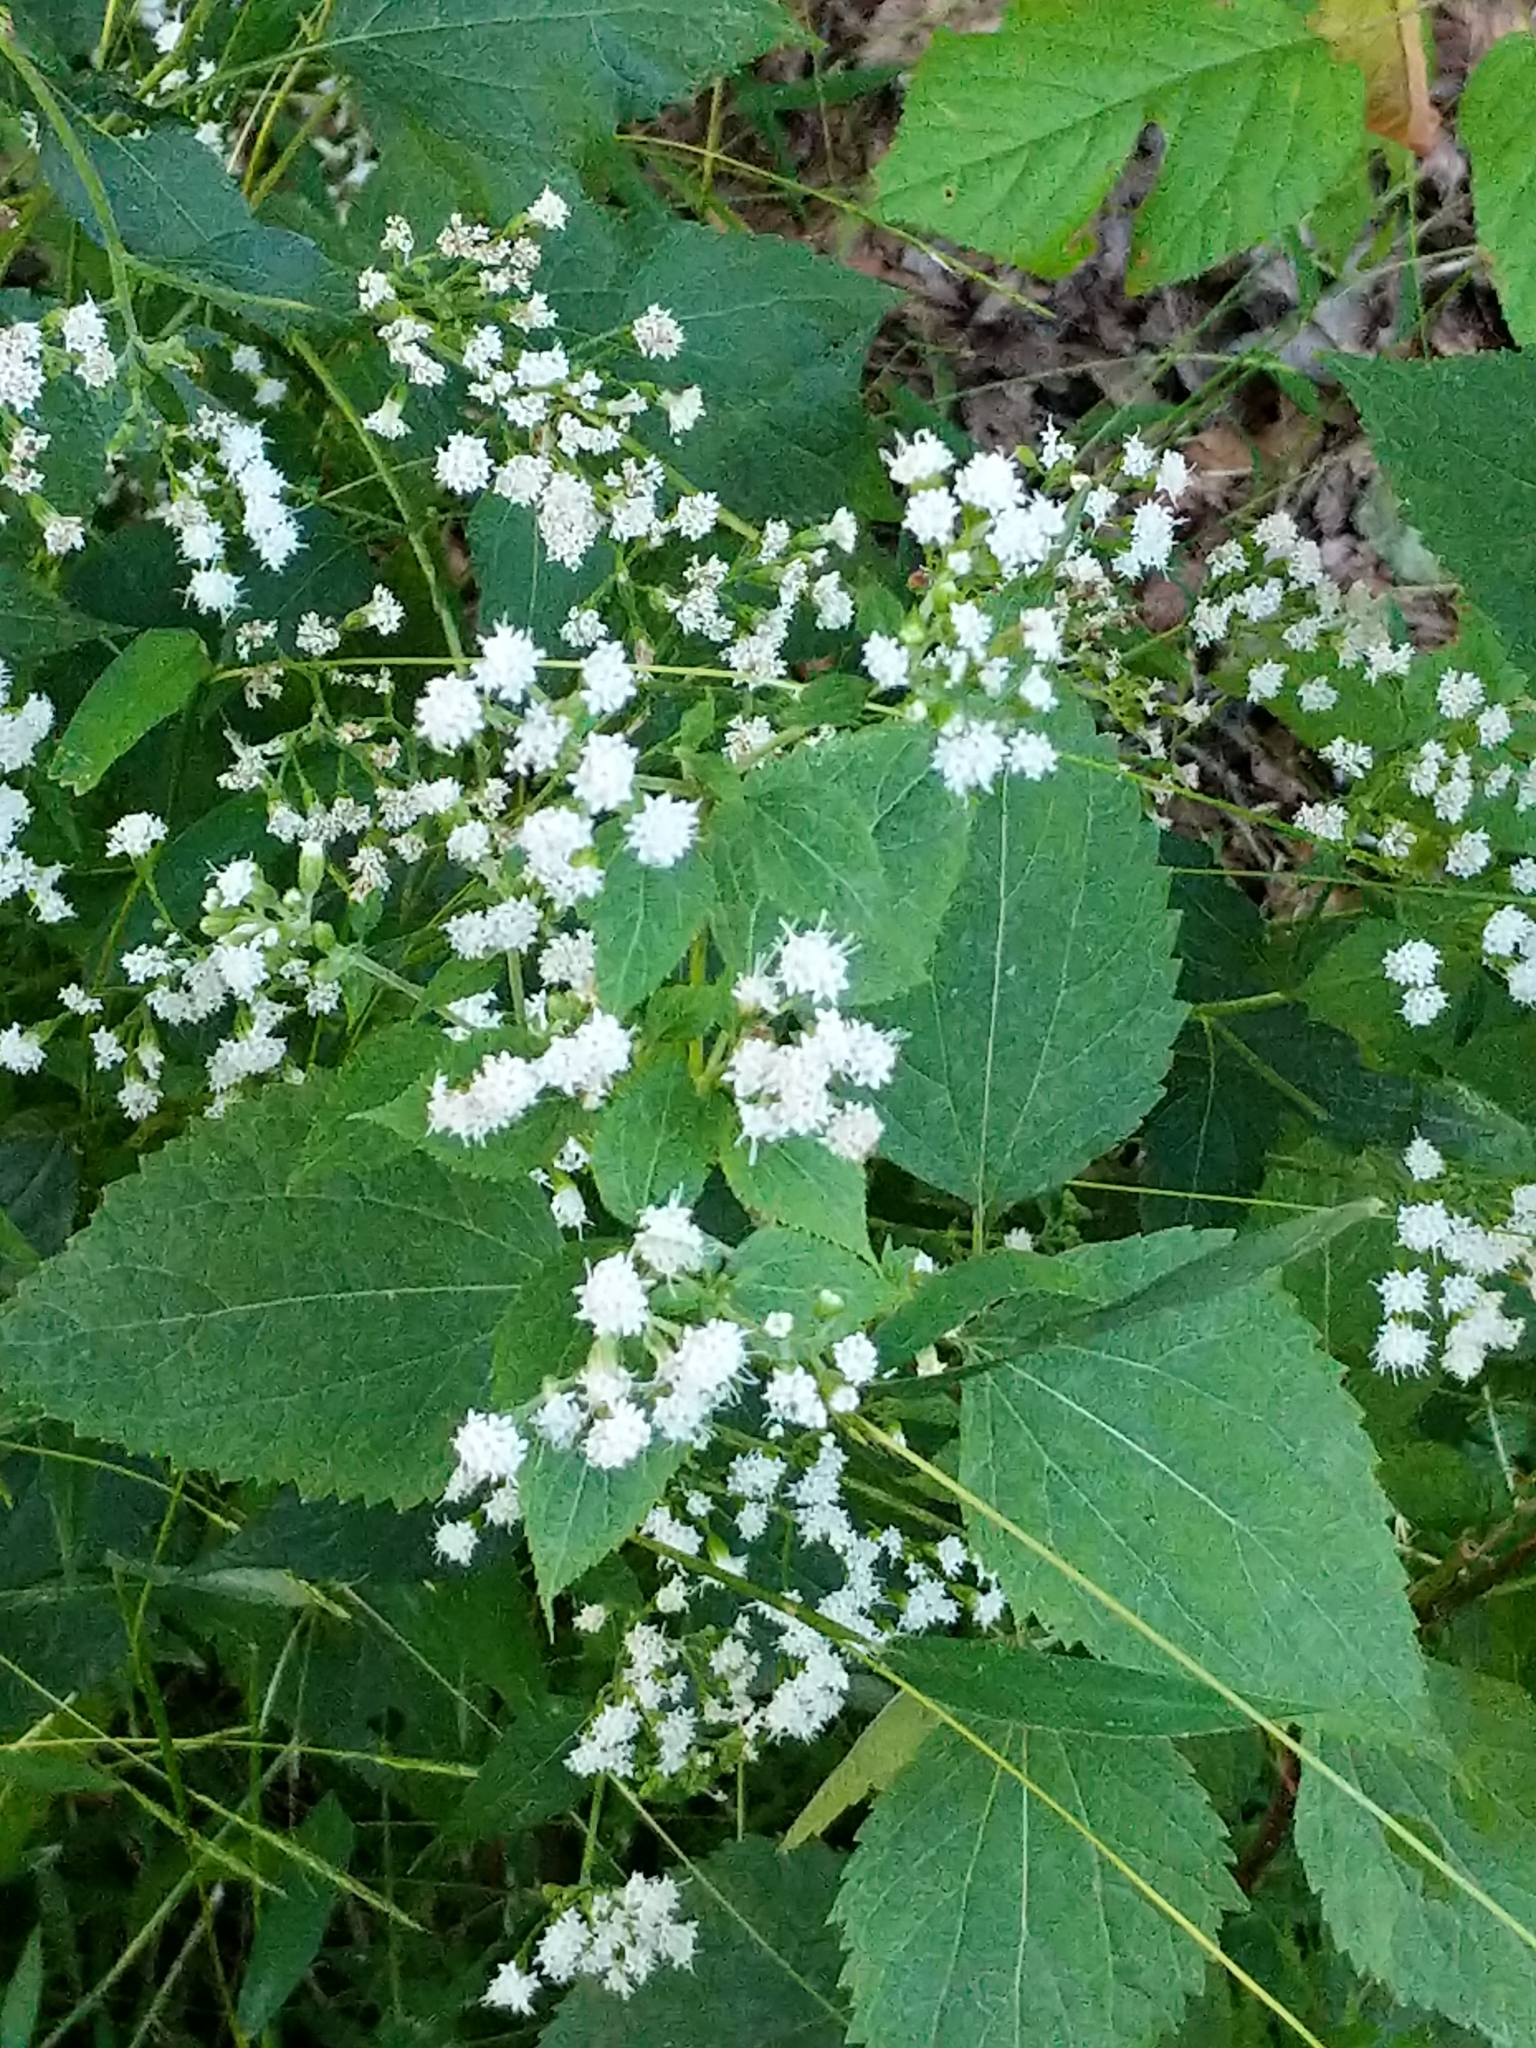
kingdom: Plantae
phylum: Tracheophyta
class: Magnoliopsida
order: Asterales
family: Asteraceae
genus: Ageratina
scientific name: Ageratina altissima
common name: White snakeroot
